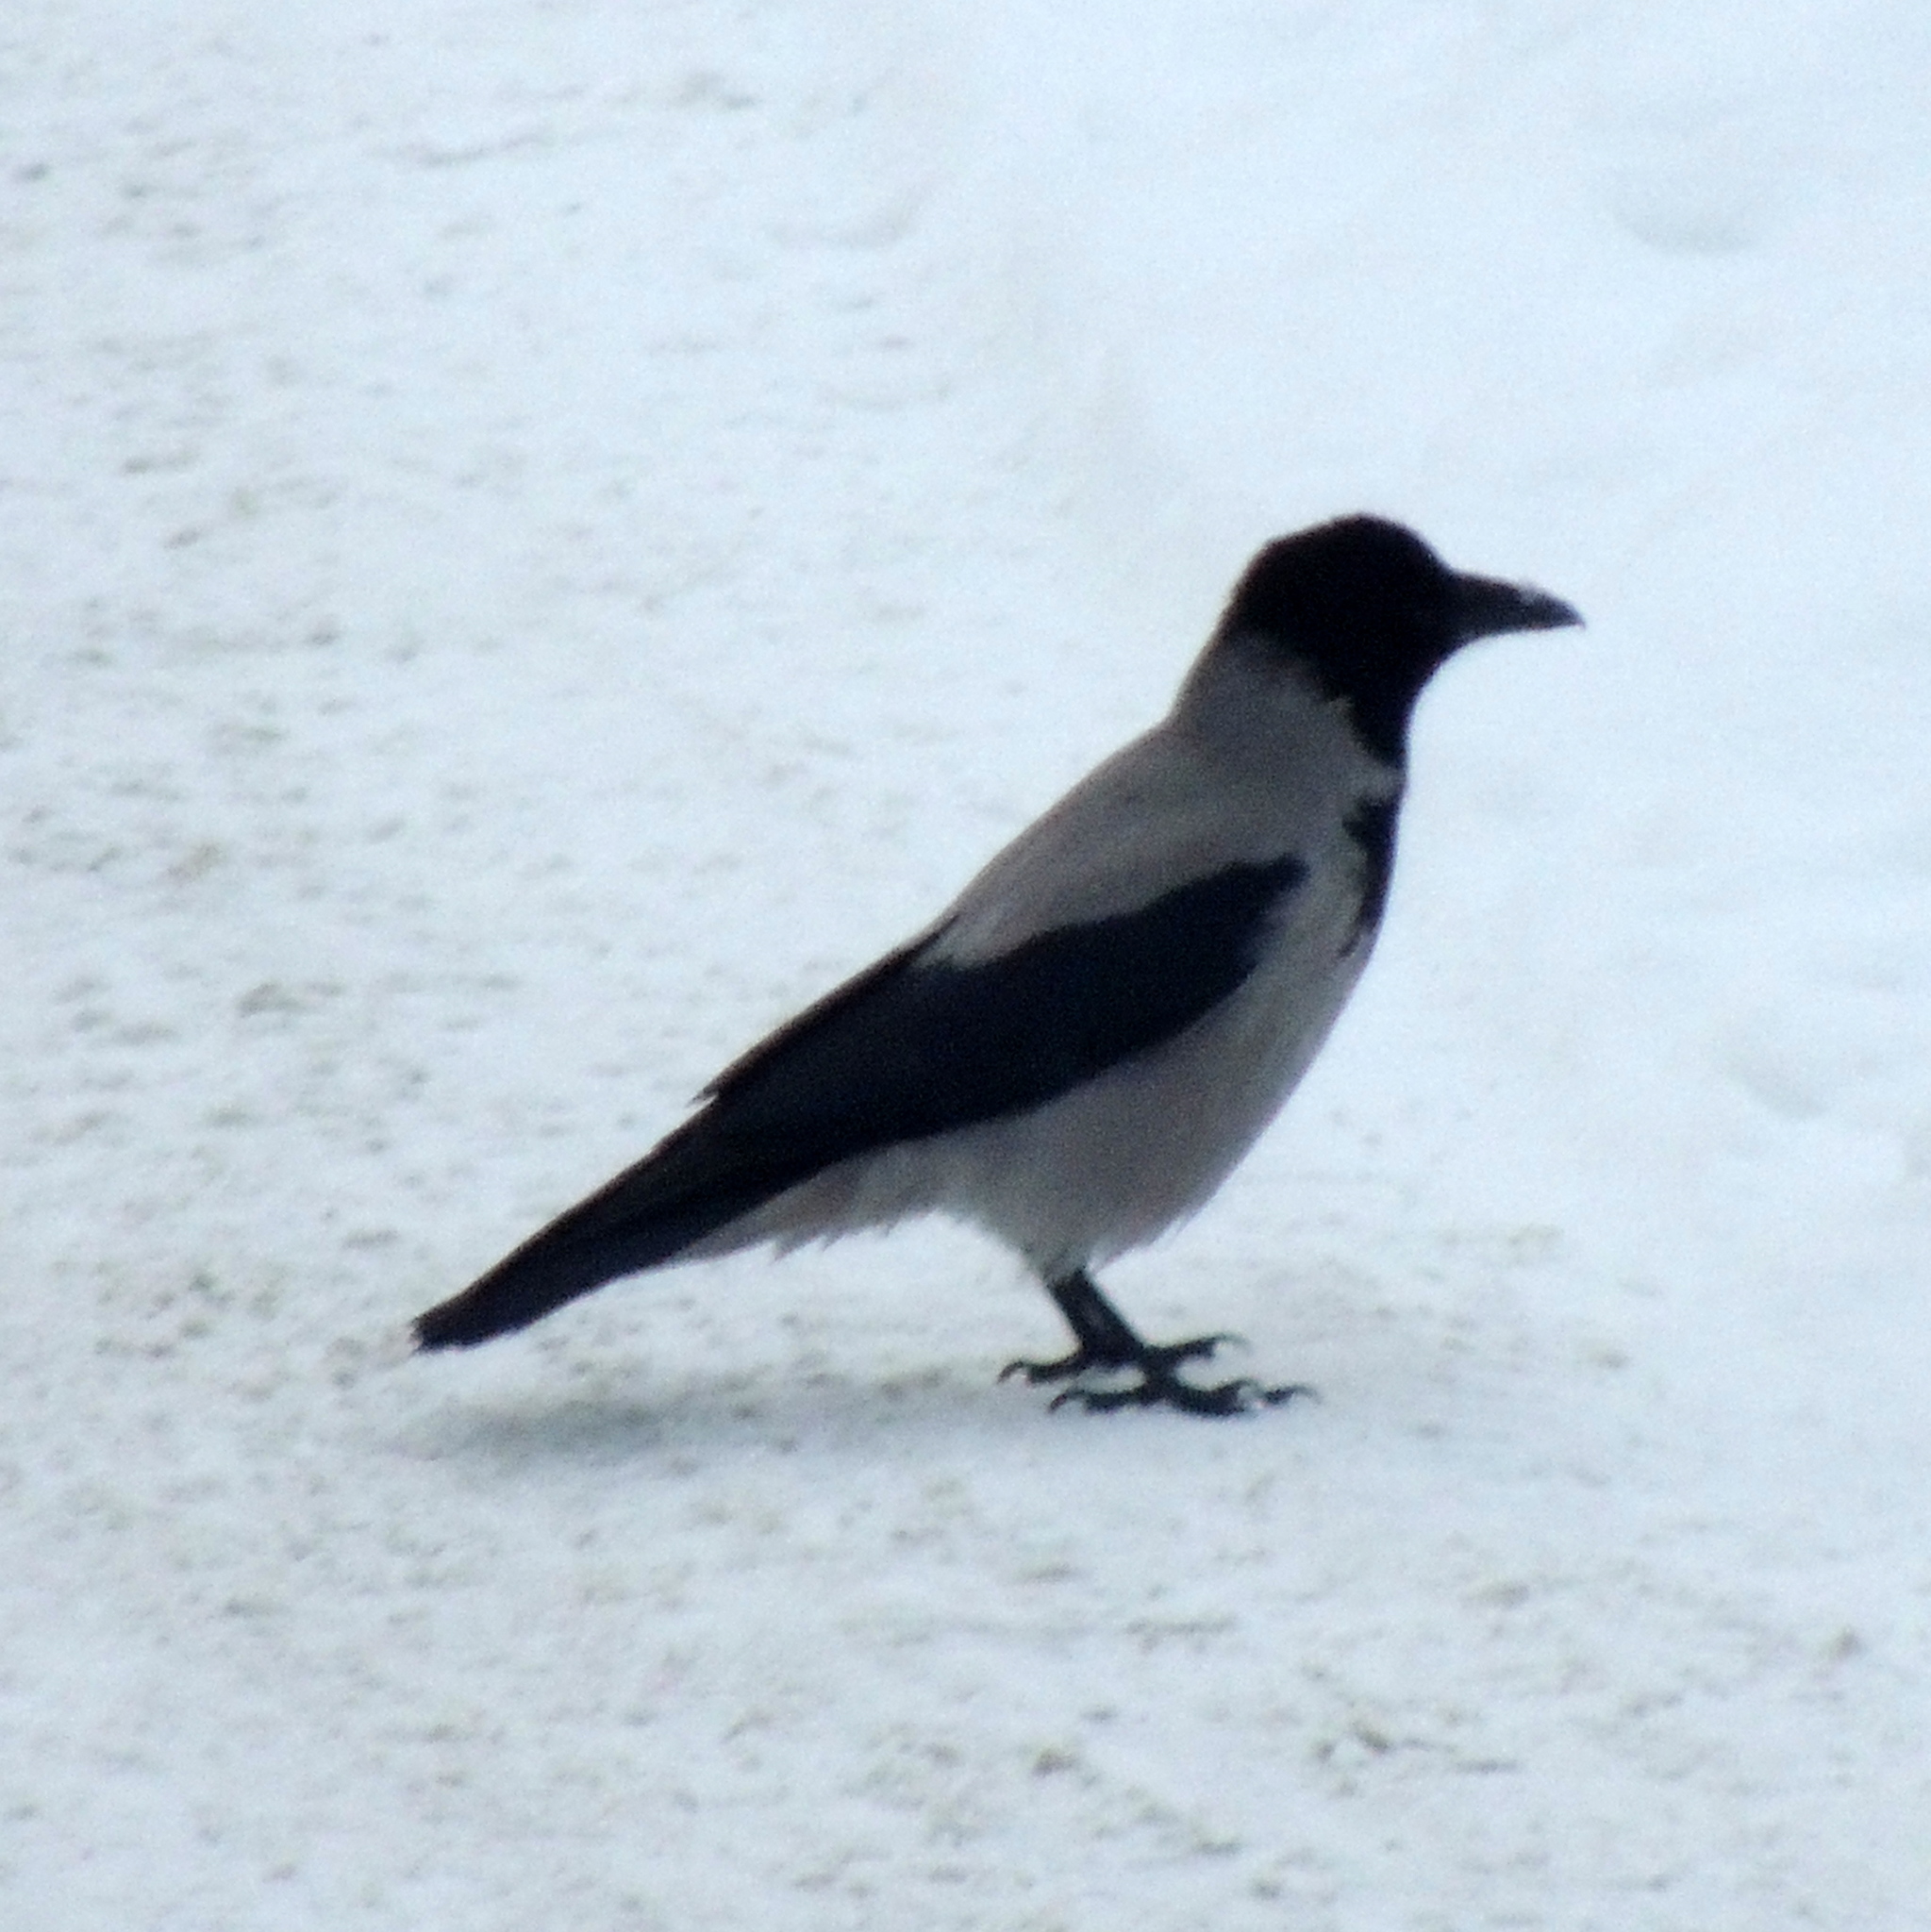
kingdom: Animalia
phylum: Chordata
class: Aves
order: Passeriformes
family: Corvidae
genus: Corvus
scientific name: Corvus cornix
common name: Hooded crow
